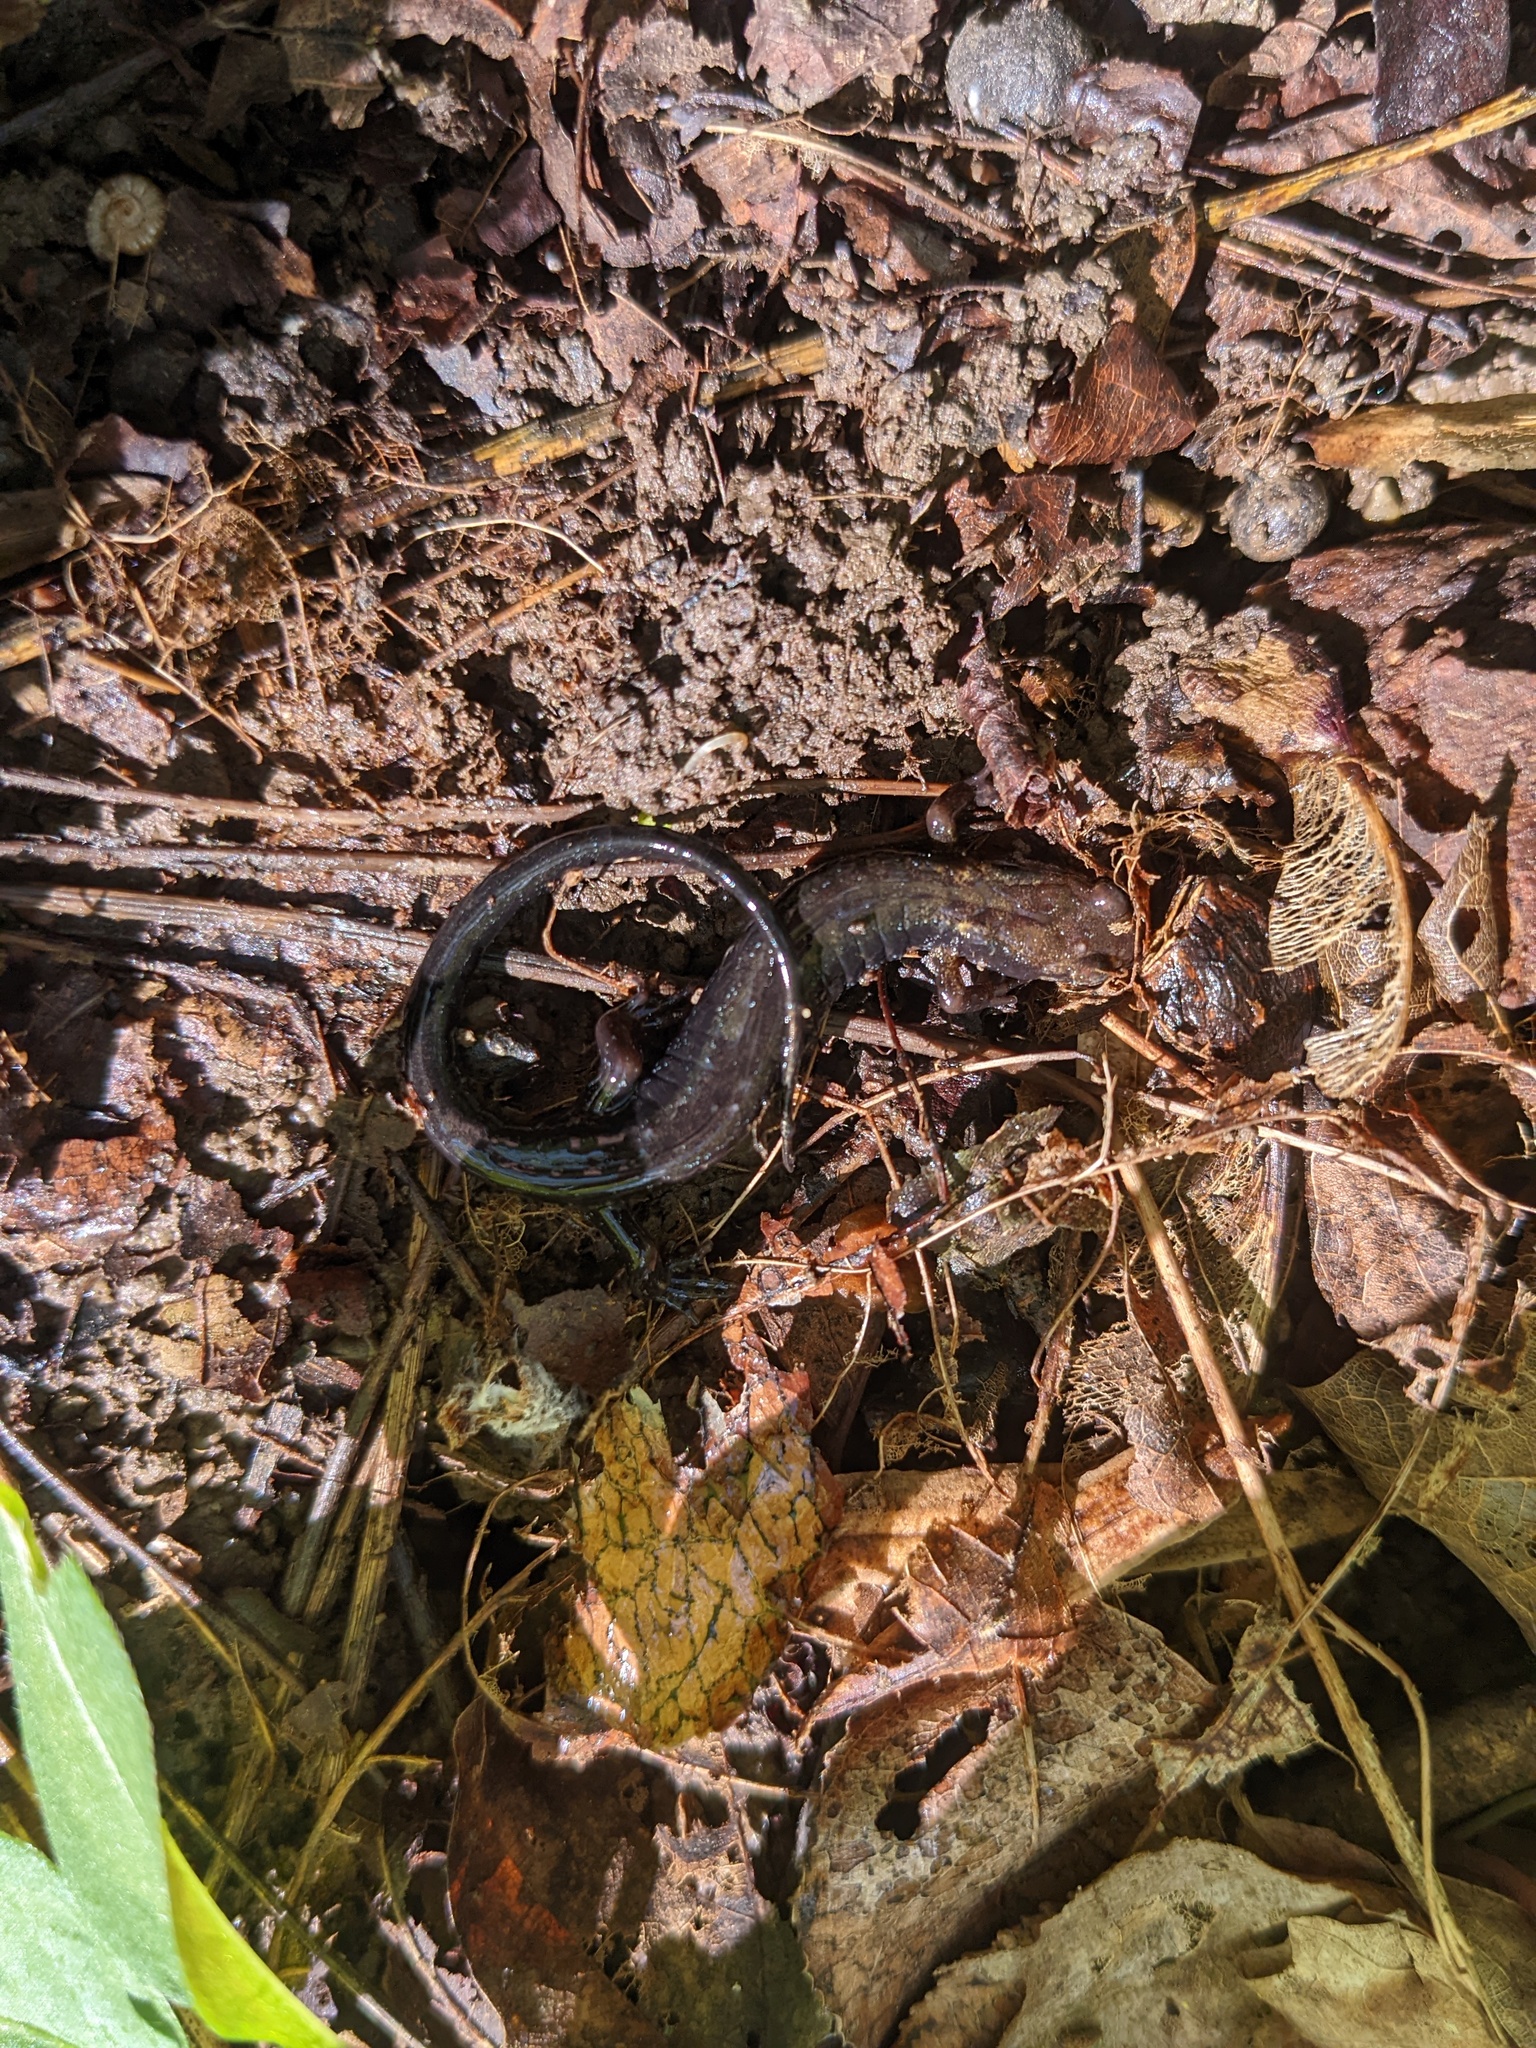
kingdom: Animalia
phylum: Chordata
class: Amphibia
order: Caudata
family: Plethodontidae
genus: Desmognathus
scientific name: Desmognathus ochrophaeus
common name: Allegheny mountain dusky salamander
